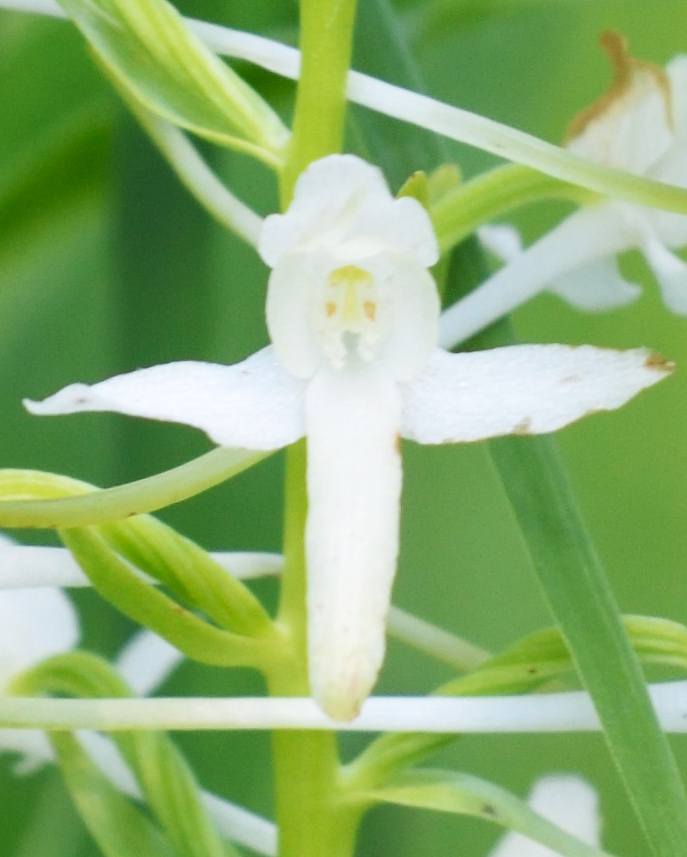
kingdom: Plantae
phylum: Tracheophyta
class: Liliopsida
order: Asparagales
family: Orchidaceae
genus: Platanthera
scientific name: Platanthera bifolia
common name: Lesser butterfly-orchid
